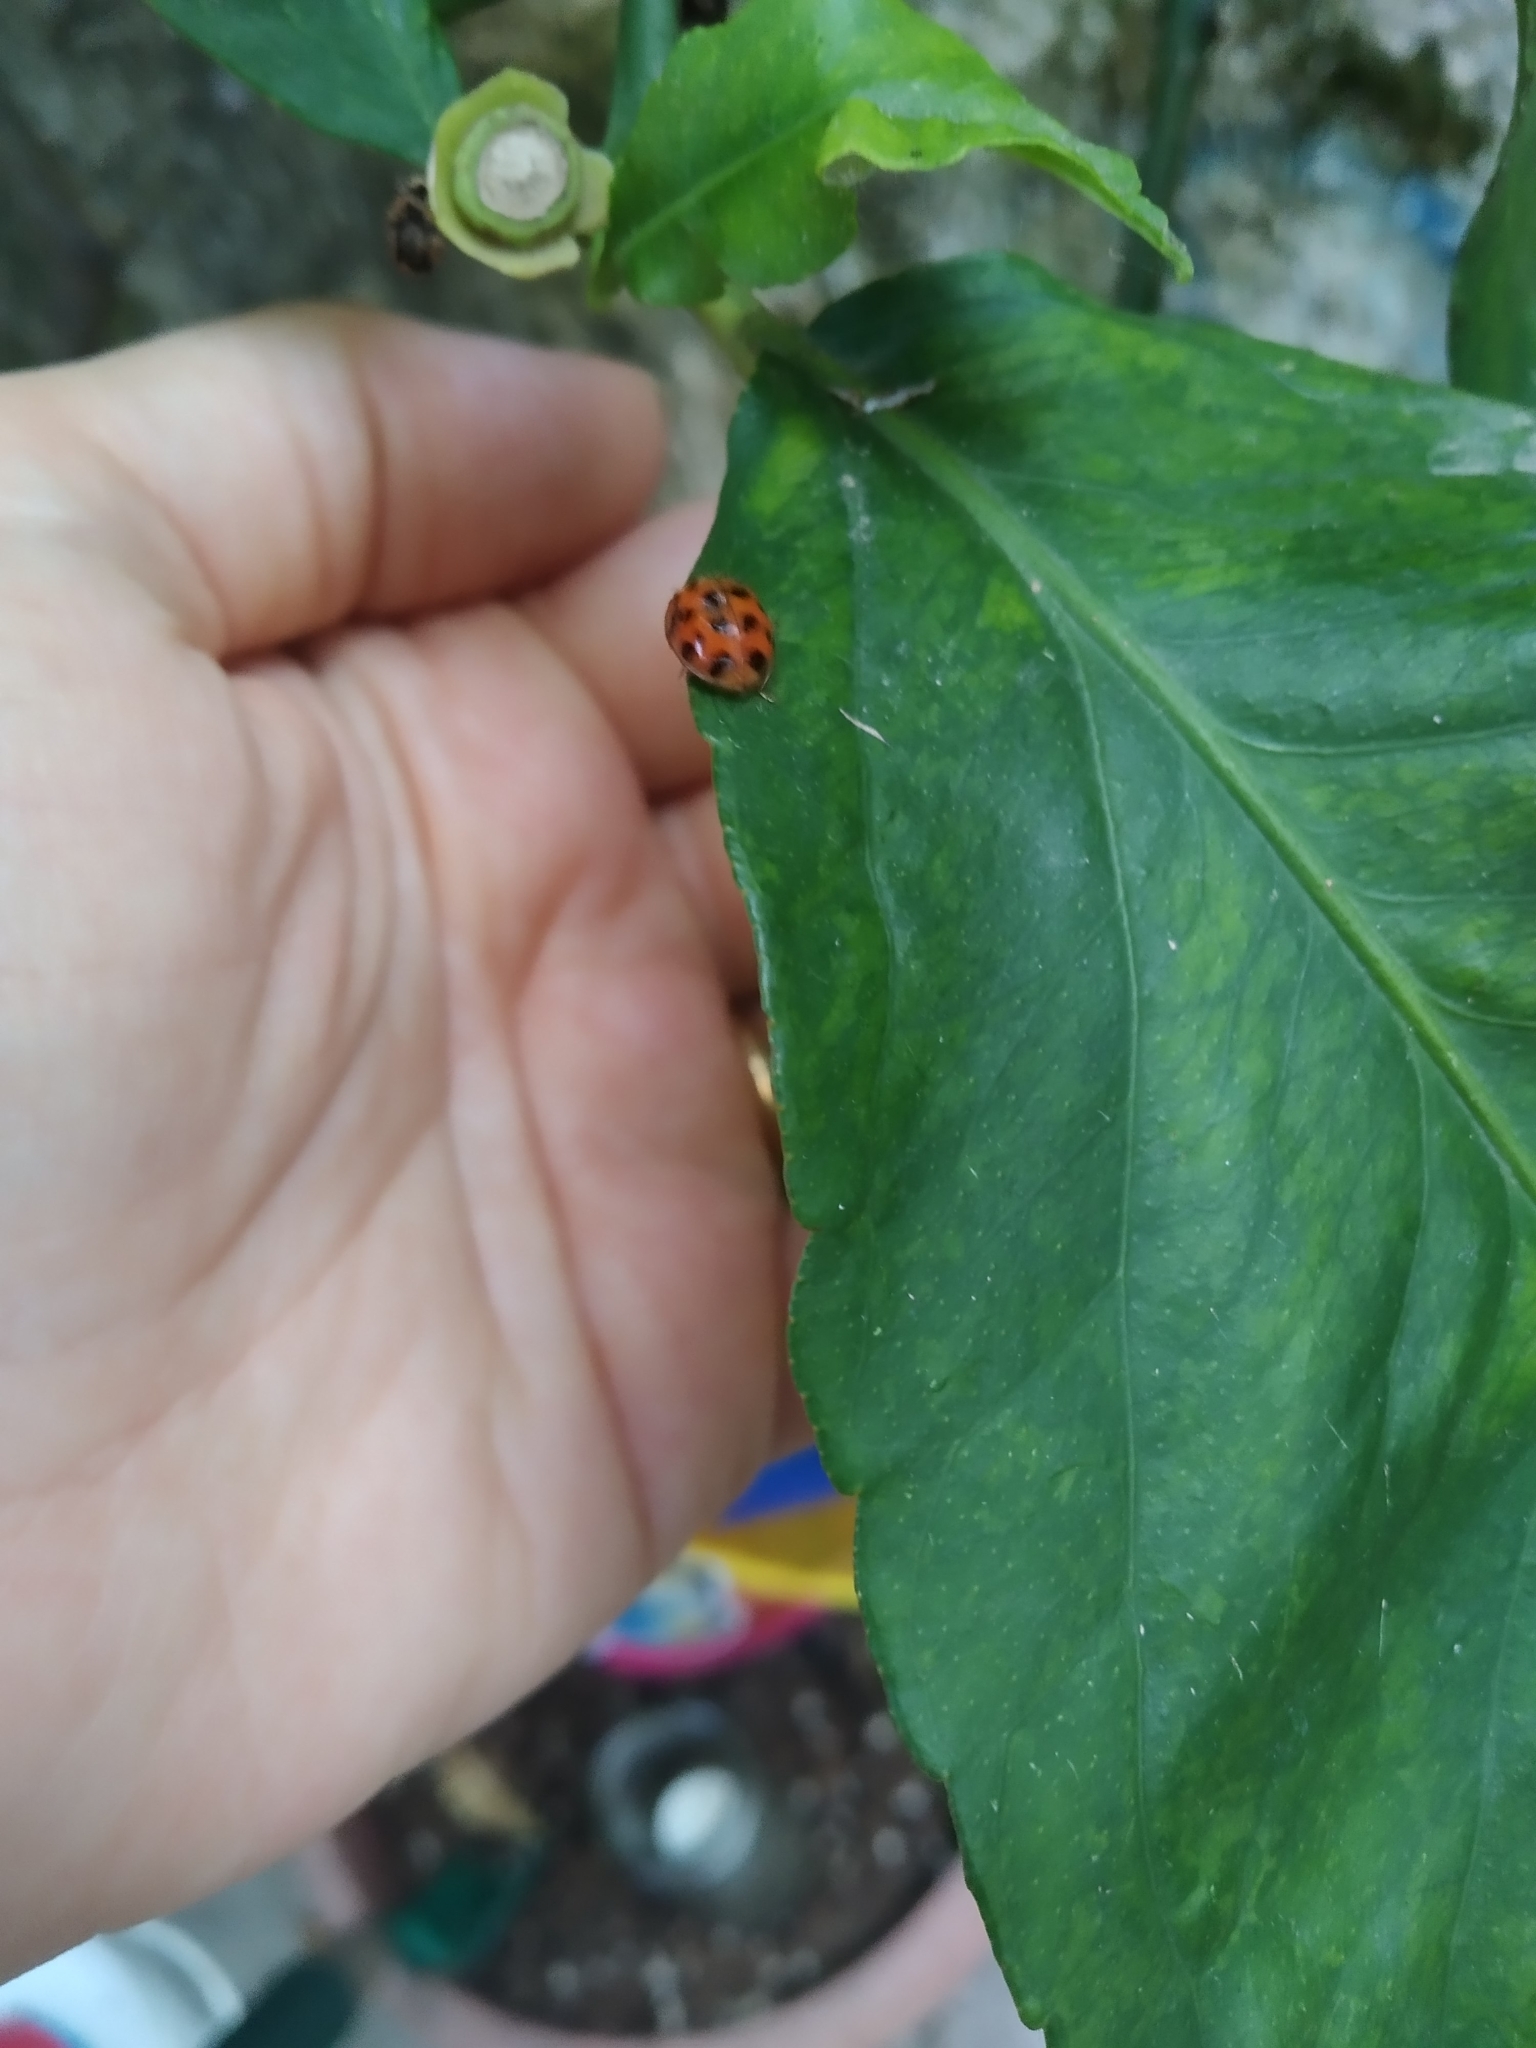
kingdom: Animalia
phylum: Arthropoda
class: Insecta
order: Coleoptera
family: Coccinellidae
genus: Harmonia
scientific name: Harmonia axyridis
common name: Harlequin ladybird
